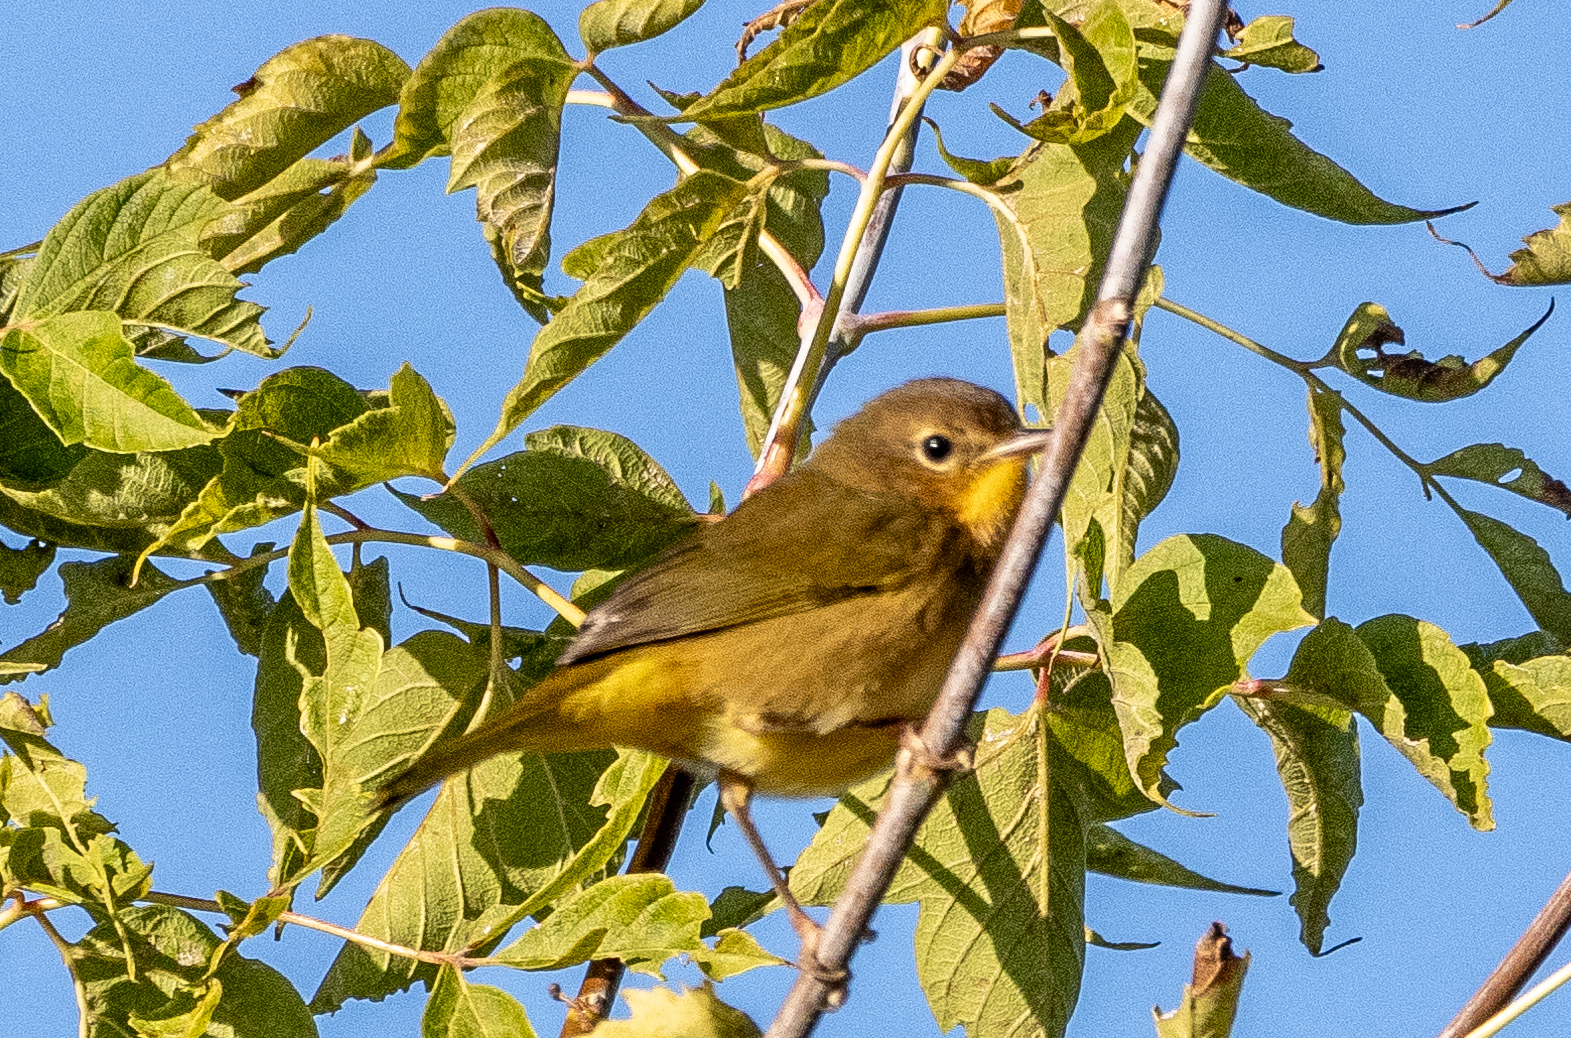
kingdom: Animalia
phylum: Chordata
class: Aves
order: Passeriformes
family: Parulidae
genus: Geothlypis
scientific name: Geothlypis trichas
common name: Common yellowthroat
